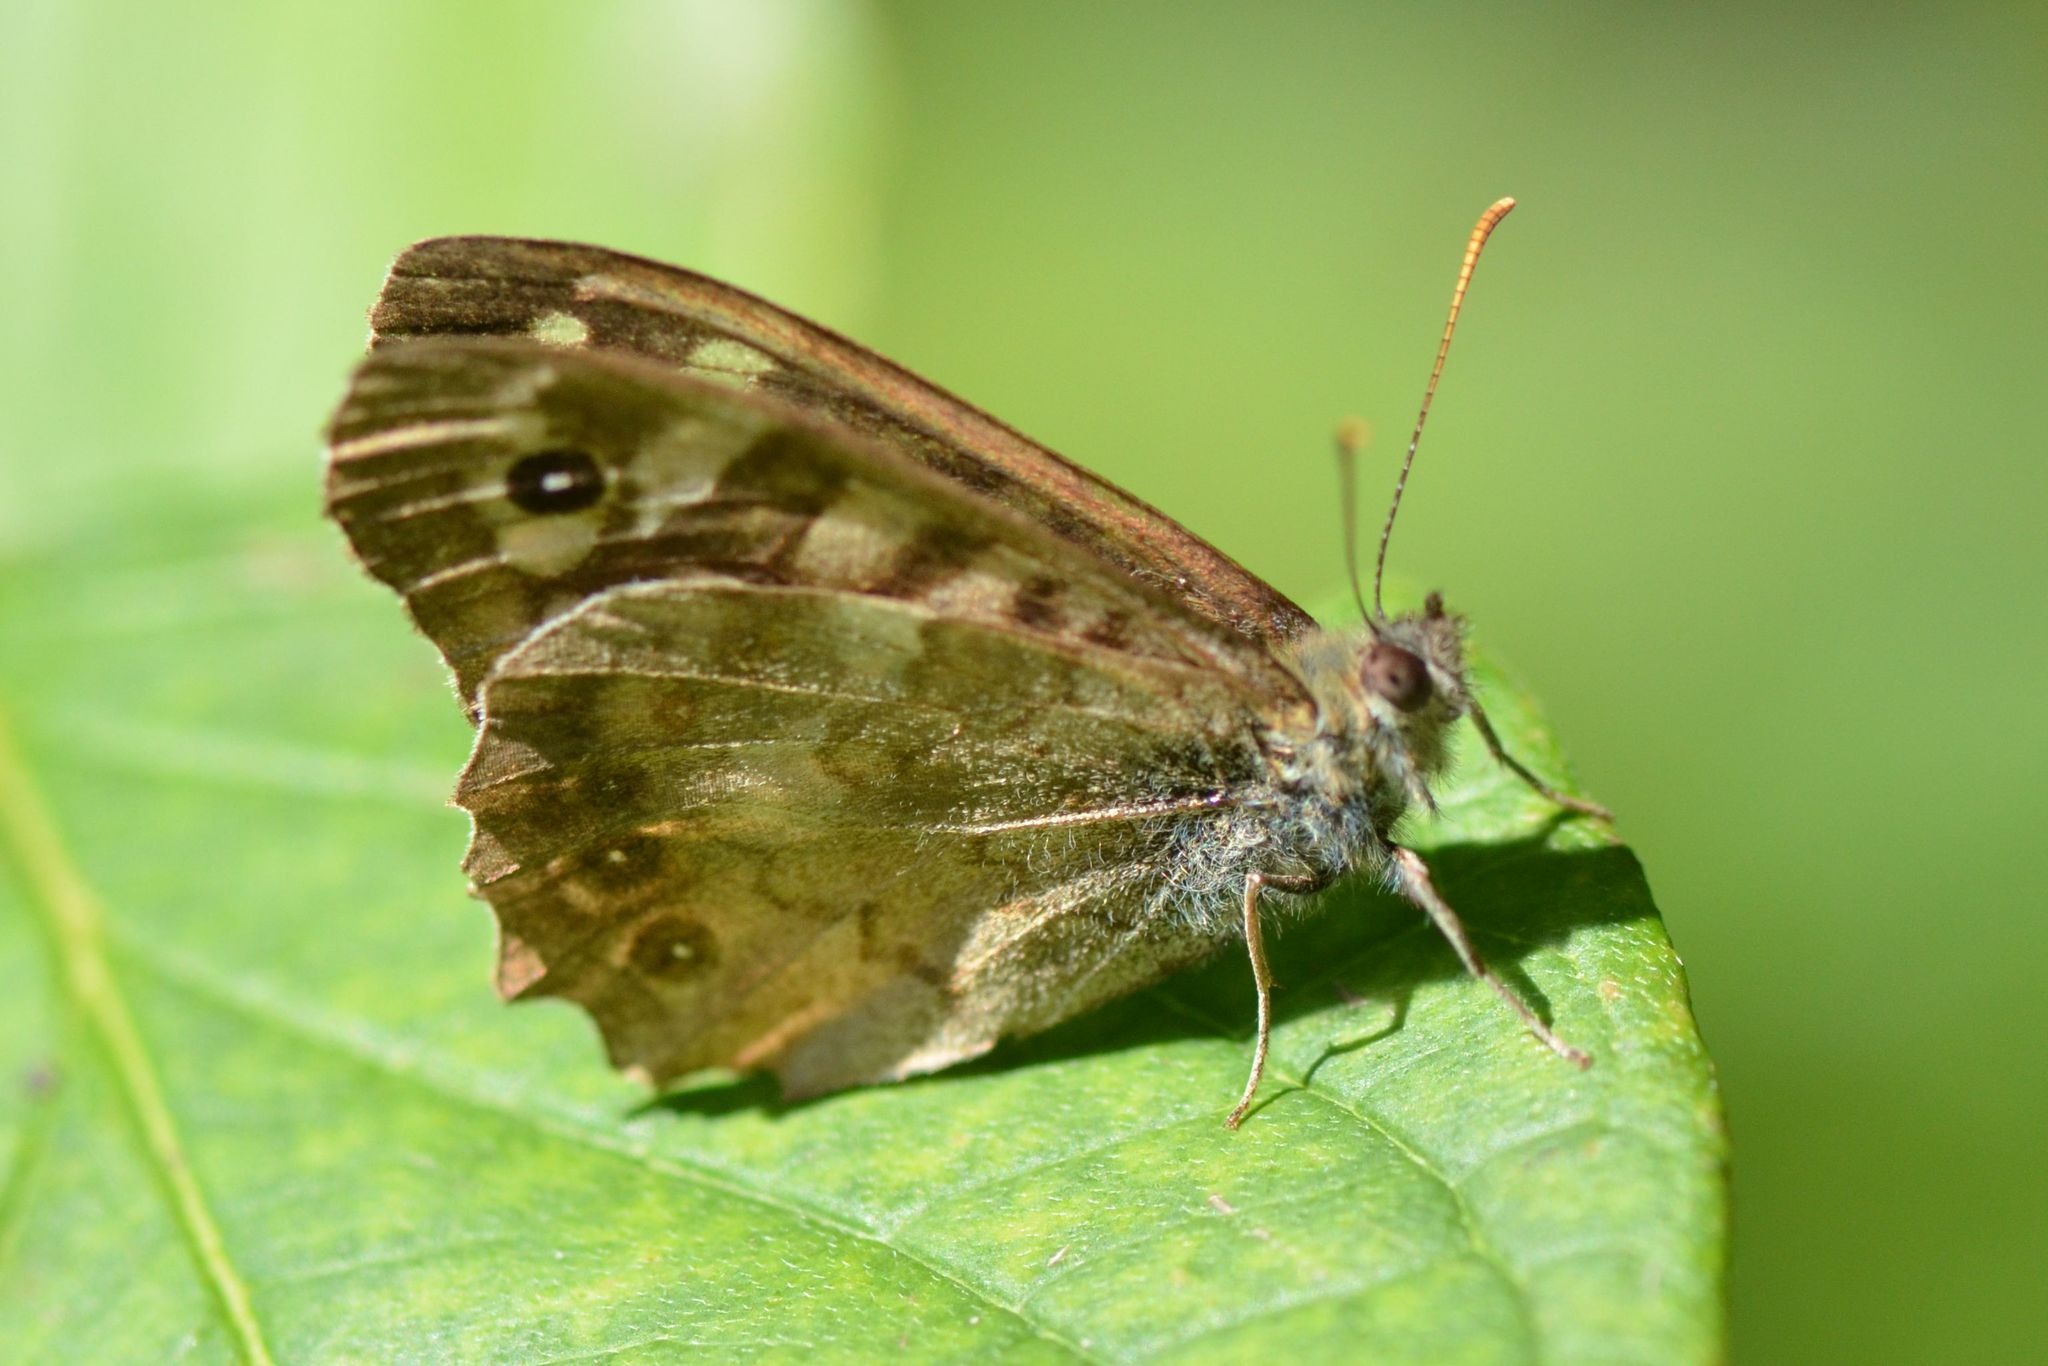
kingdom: Animalia
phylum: Arthropoda
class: Insecta
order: Lepidoptera
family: Nymphalidae
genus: Pararge
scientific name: Pararge aegeria
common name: Speckled wood
